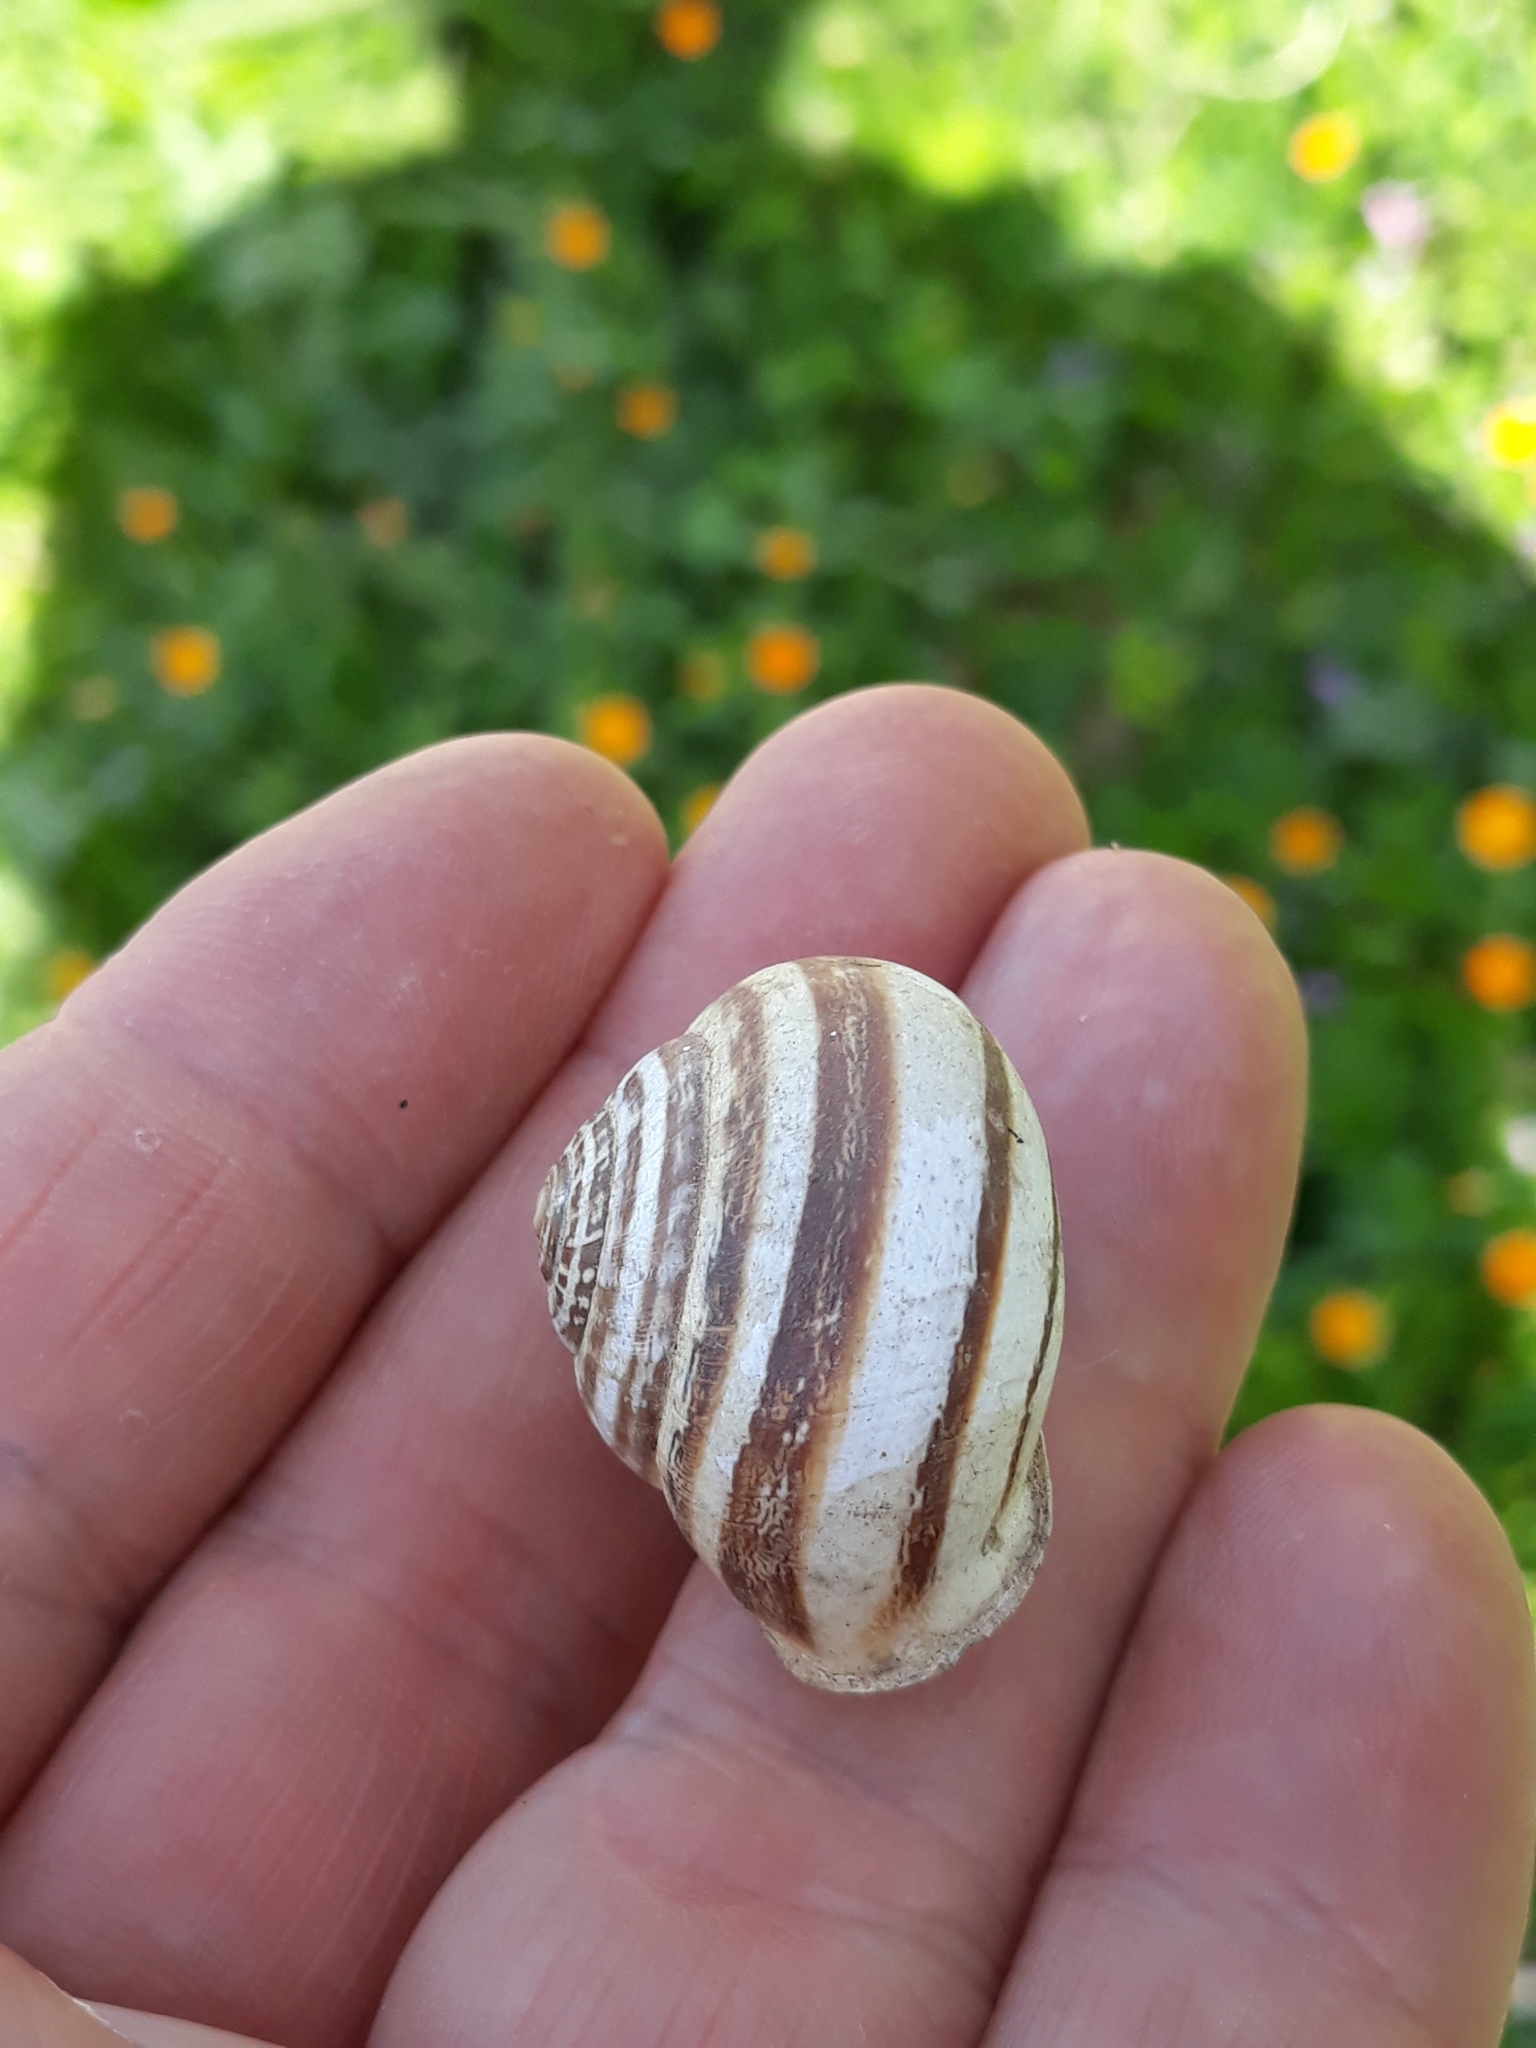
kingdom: Animalia
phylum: Mollusca
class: Gastropoda
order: Stylommatophora
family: Helicidae
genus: Eobania
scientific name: Eobania vermiculata
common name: Chocolateband snail
